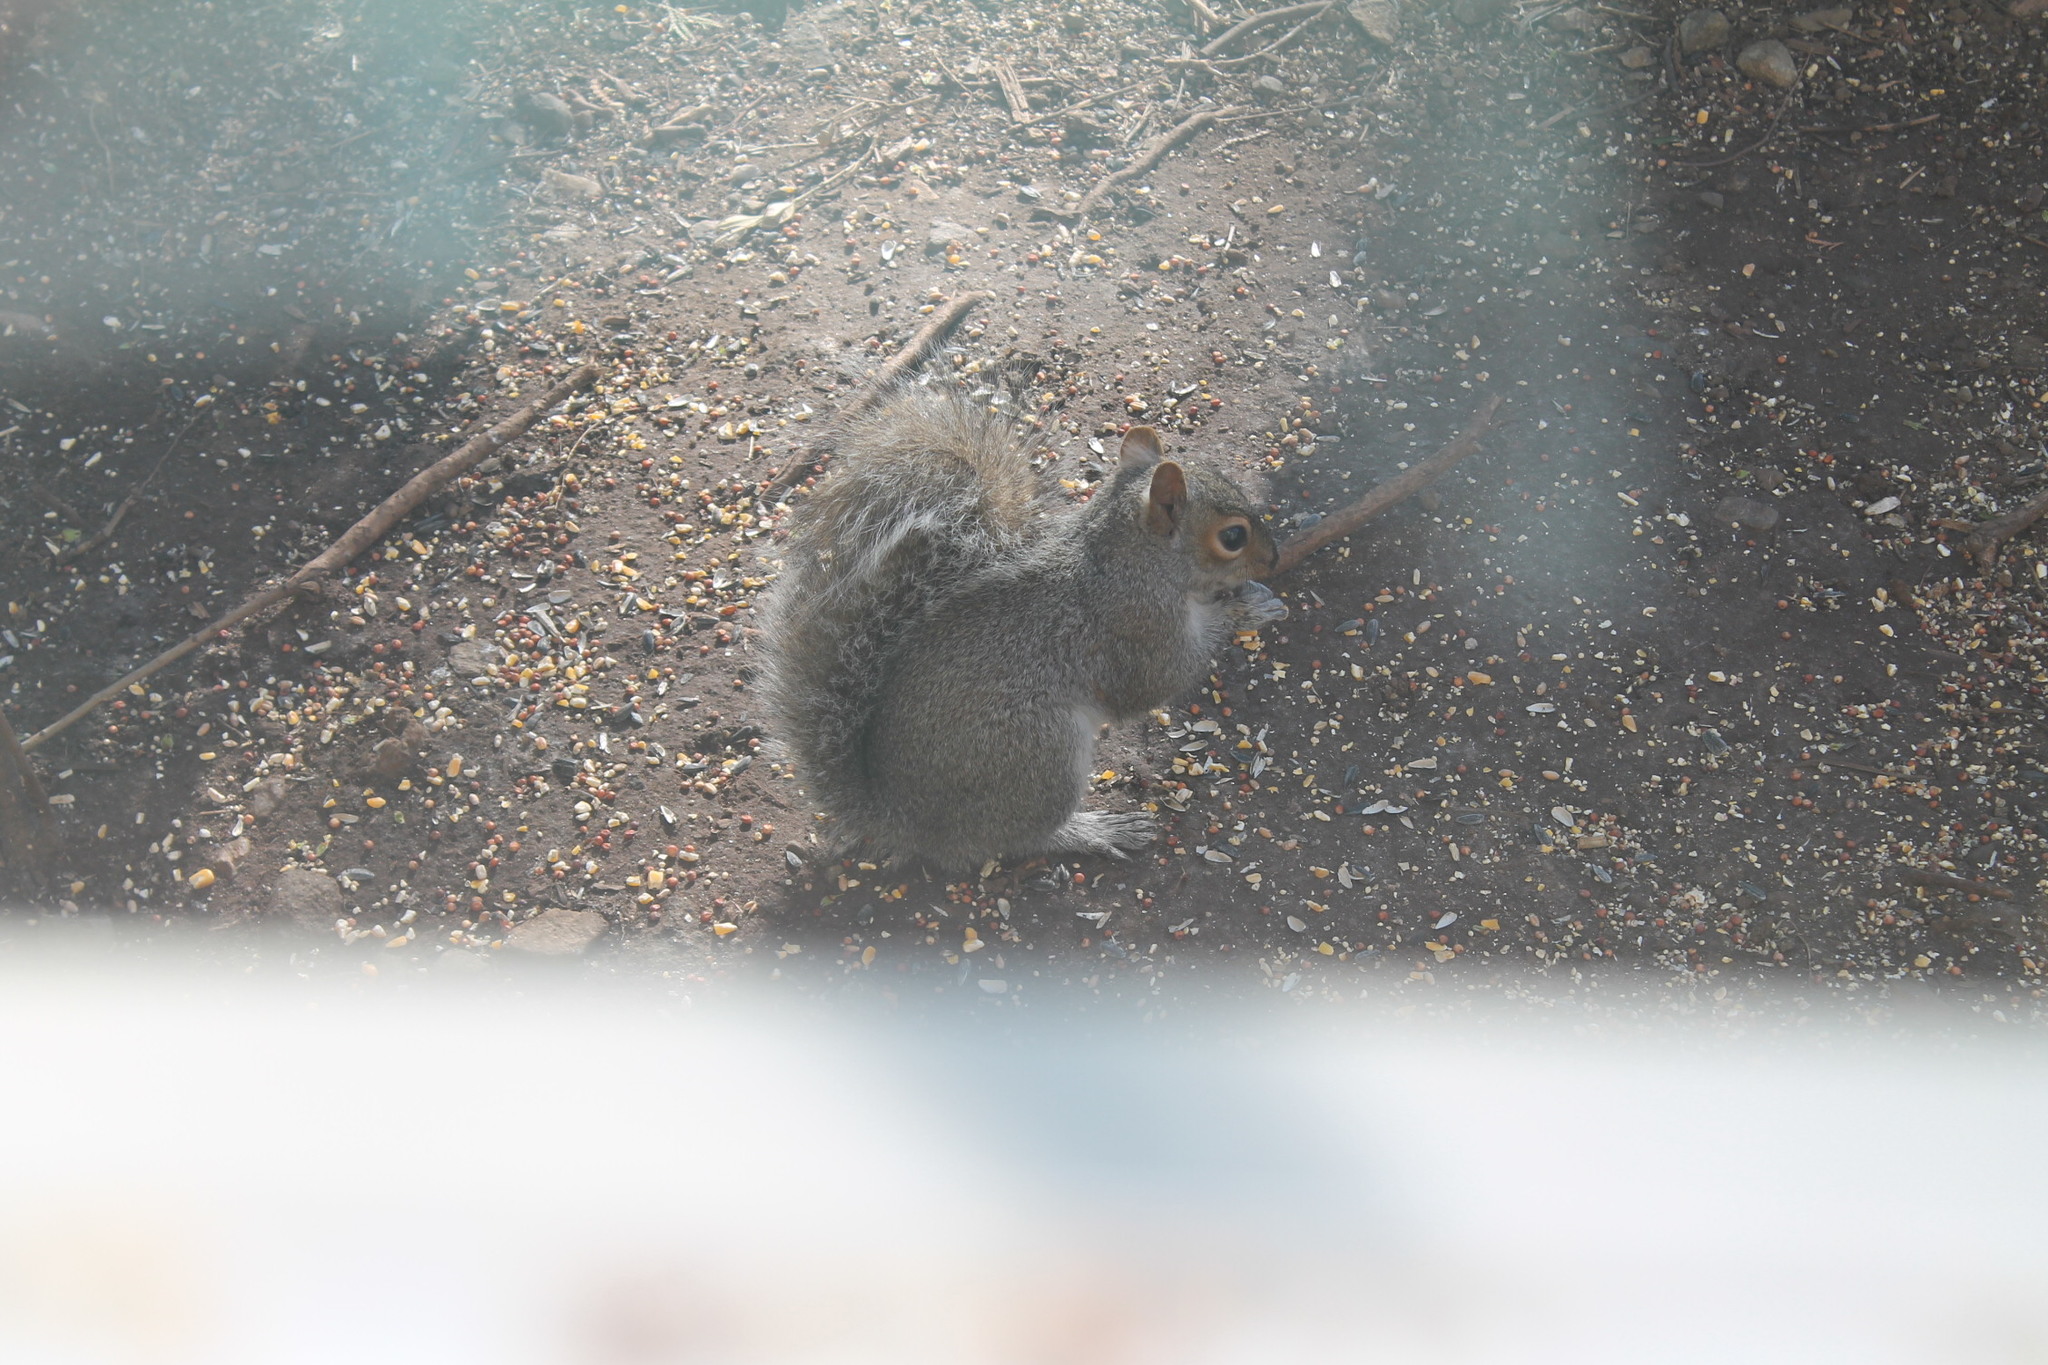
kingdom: Animalia
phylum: Chordata
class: Mammalia
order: Rodentia
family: Sciuridae
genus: Sciurus
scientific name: Sciurus carolinensis
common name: Eastern gray squirrel
